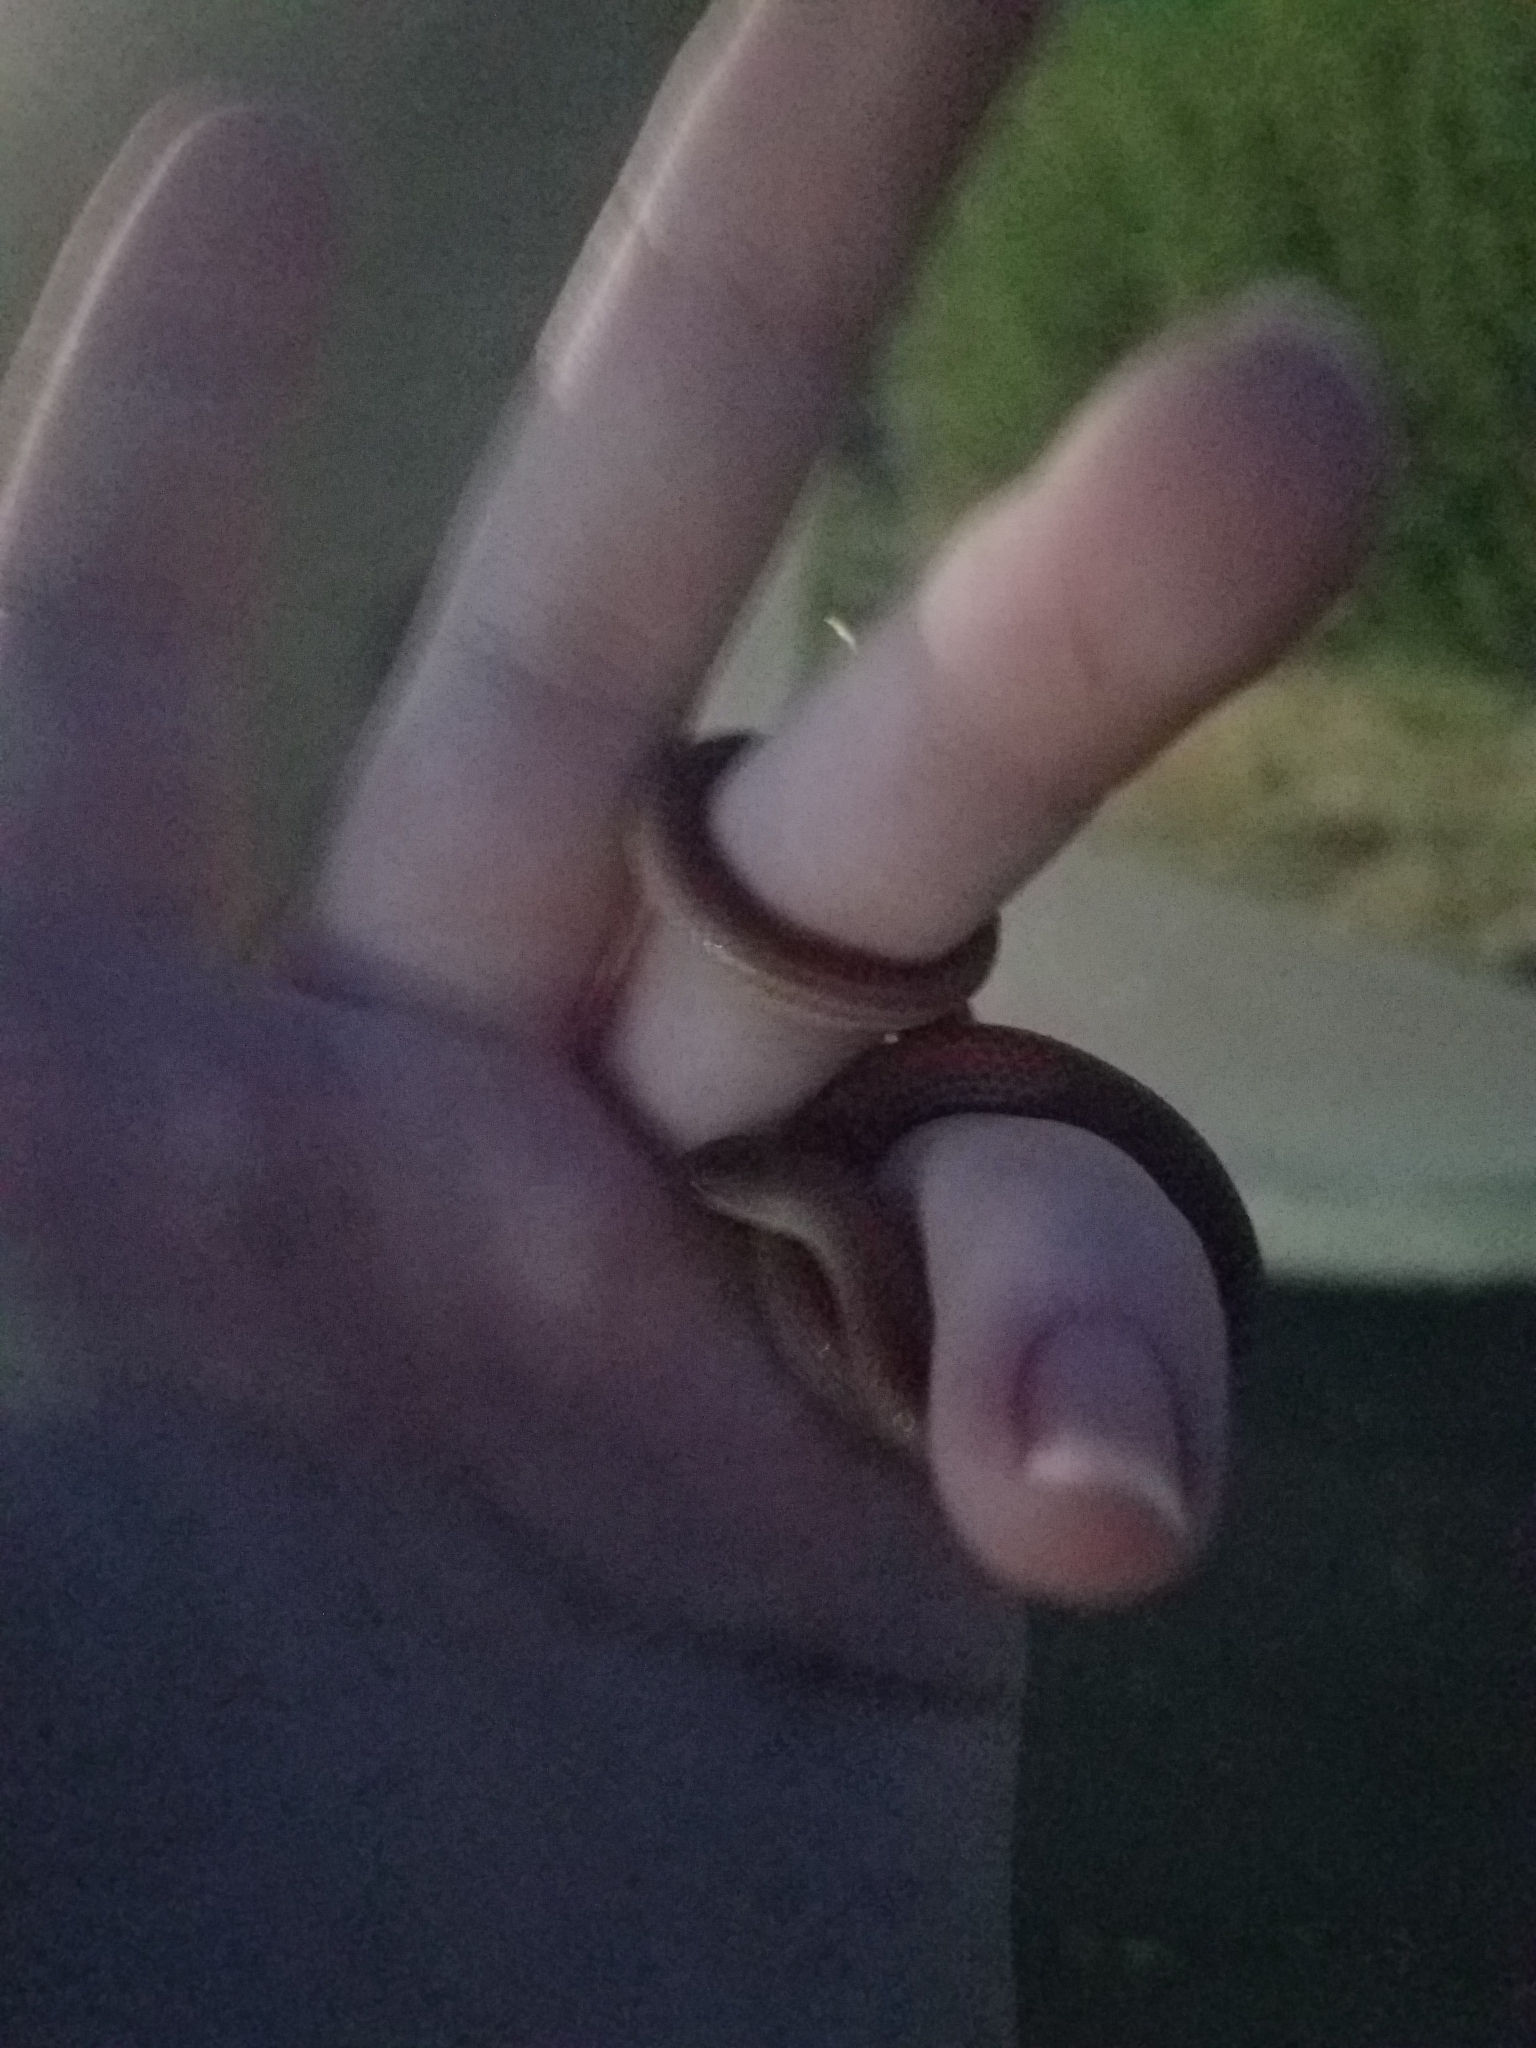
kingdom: Animalia
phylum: Chordata
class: Squamata
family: Colubridae
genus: Sonora
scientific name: Sonora semiannulata
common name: Ground snake
